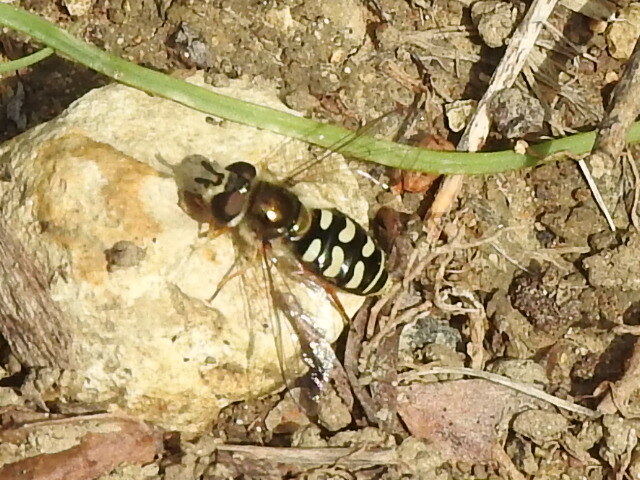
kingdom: Animalia
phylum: Arthropoda
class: Insecta
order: Diptera
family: Syrphidae
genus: Eupeodes
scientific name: Eupeodes volucris
